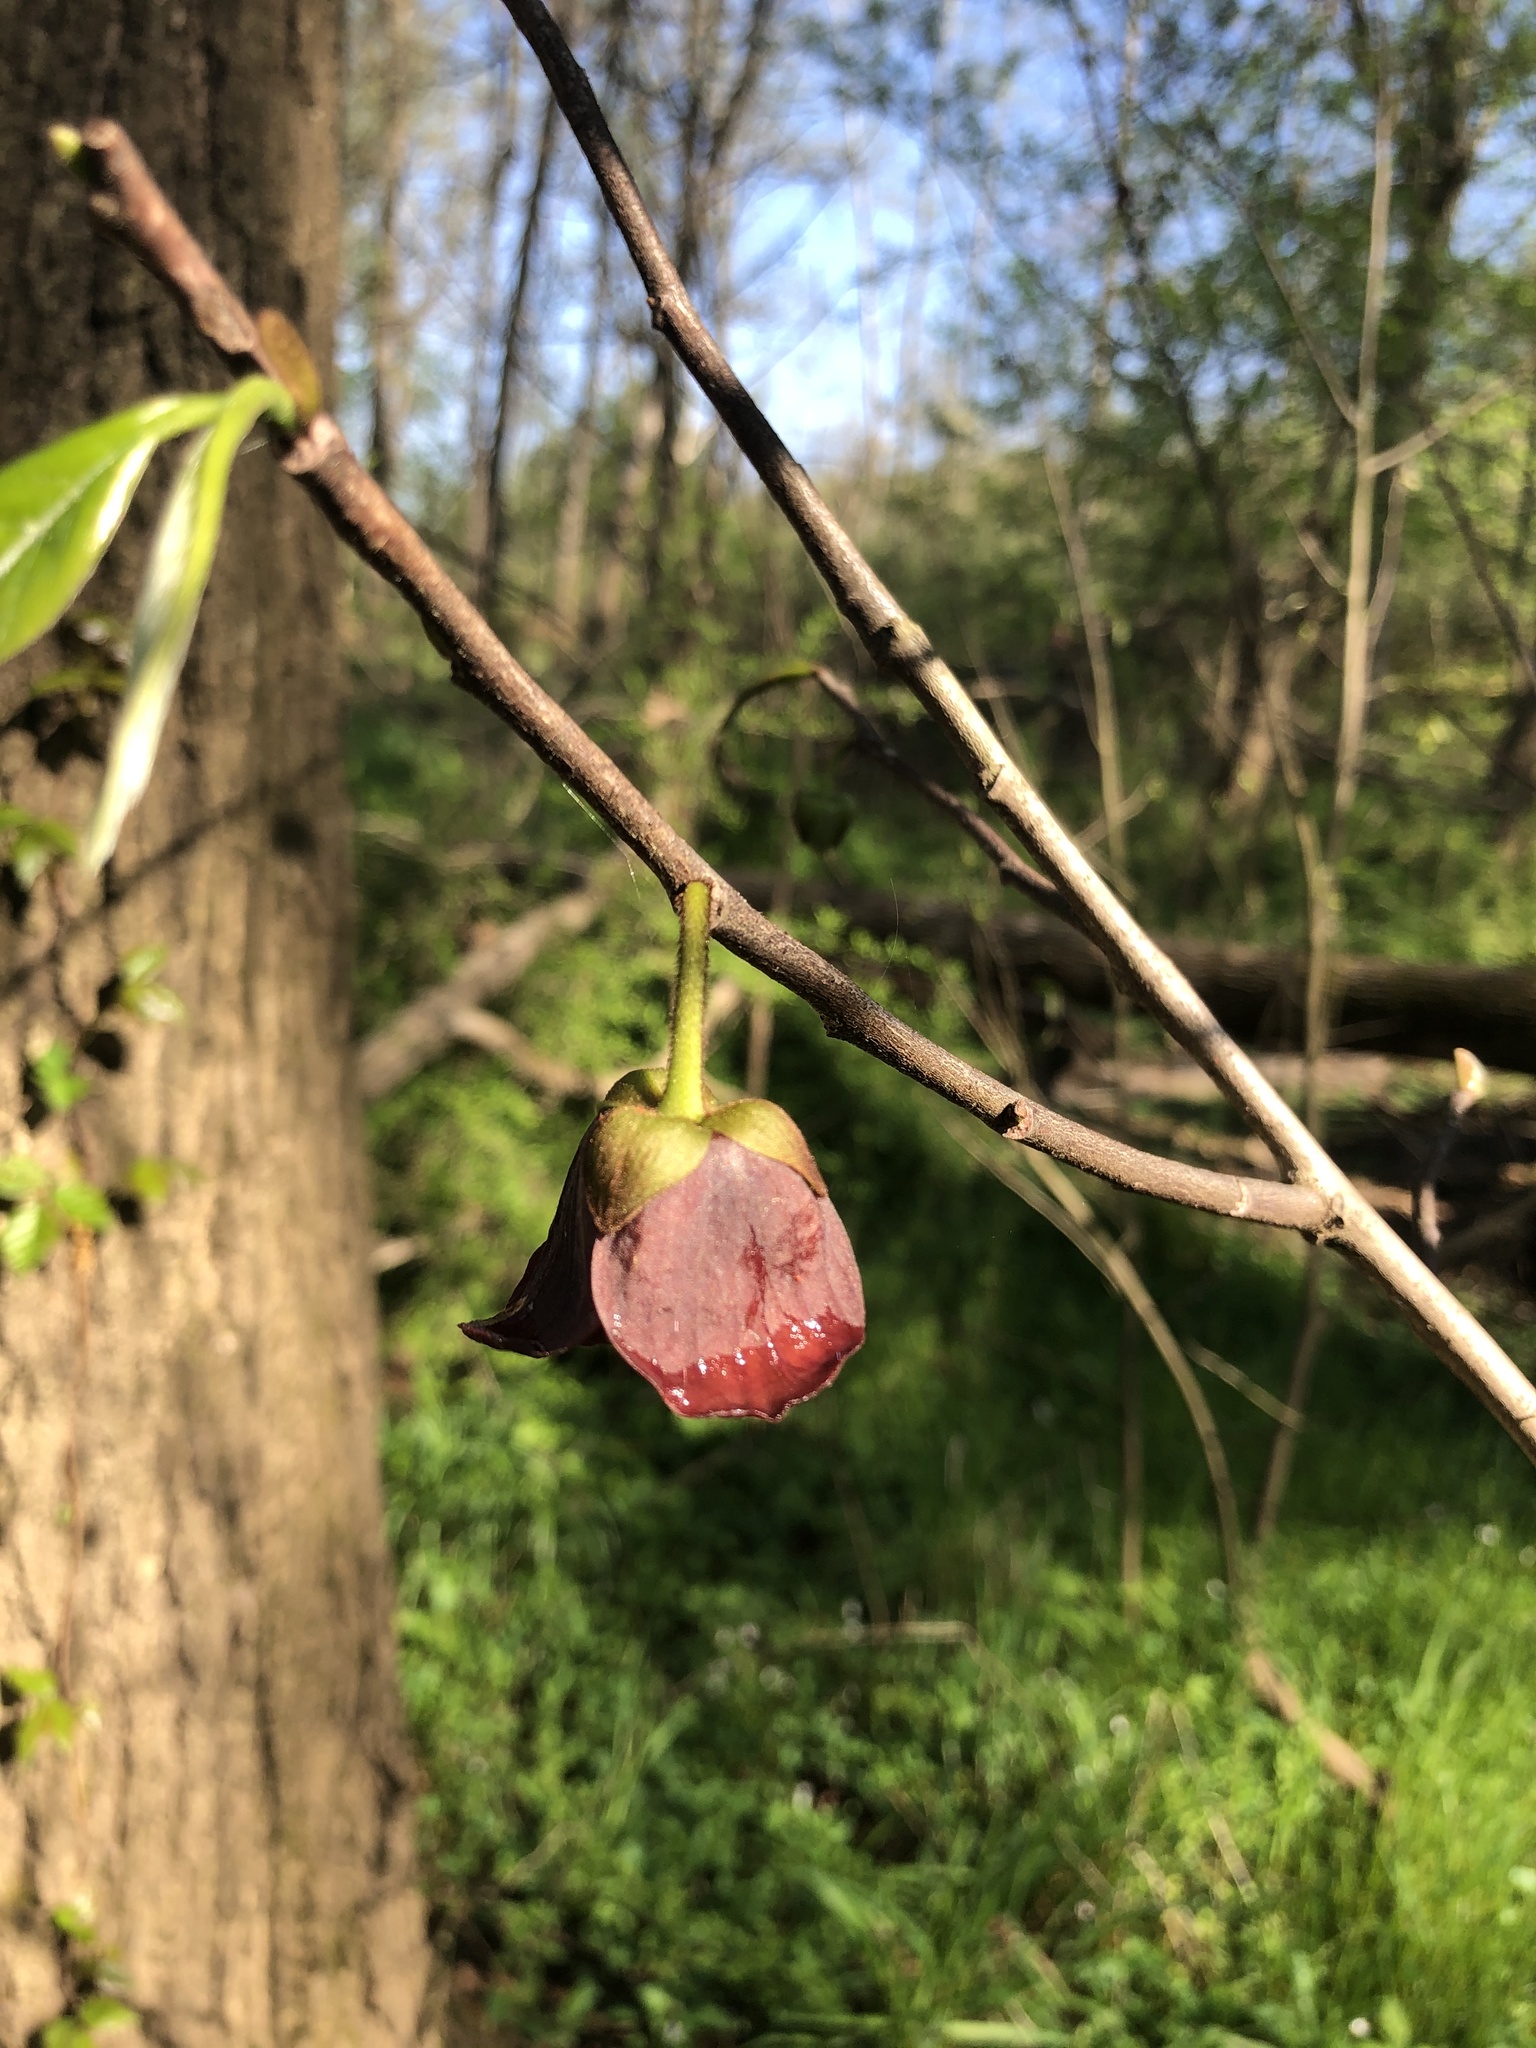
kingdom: Plantae
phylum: Tracheophyta
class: Magnoliopsida
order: Magnoliales
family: Annonaceae
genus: Asimina
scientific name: Asimina triloba
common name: Dog-banana
